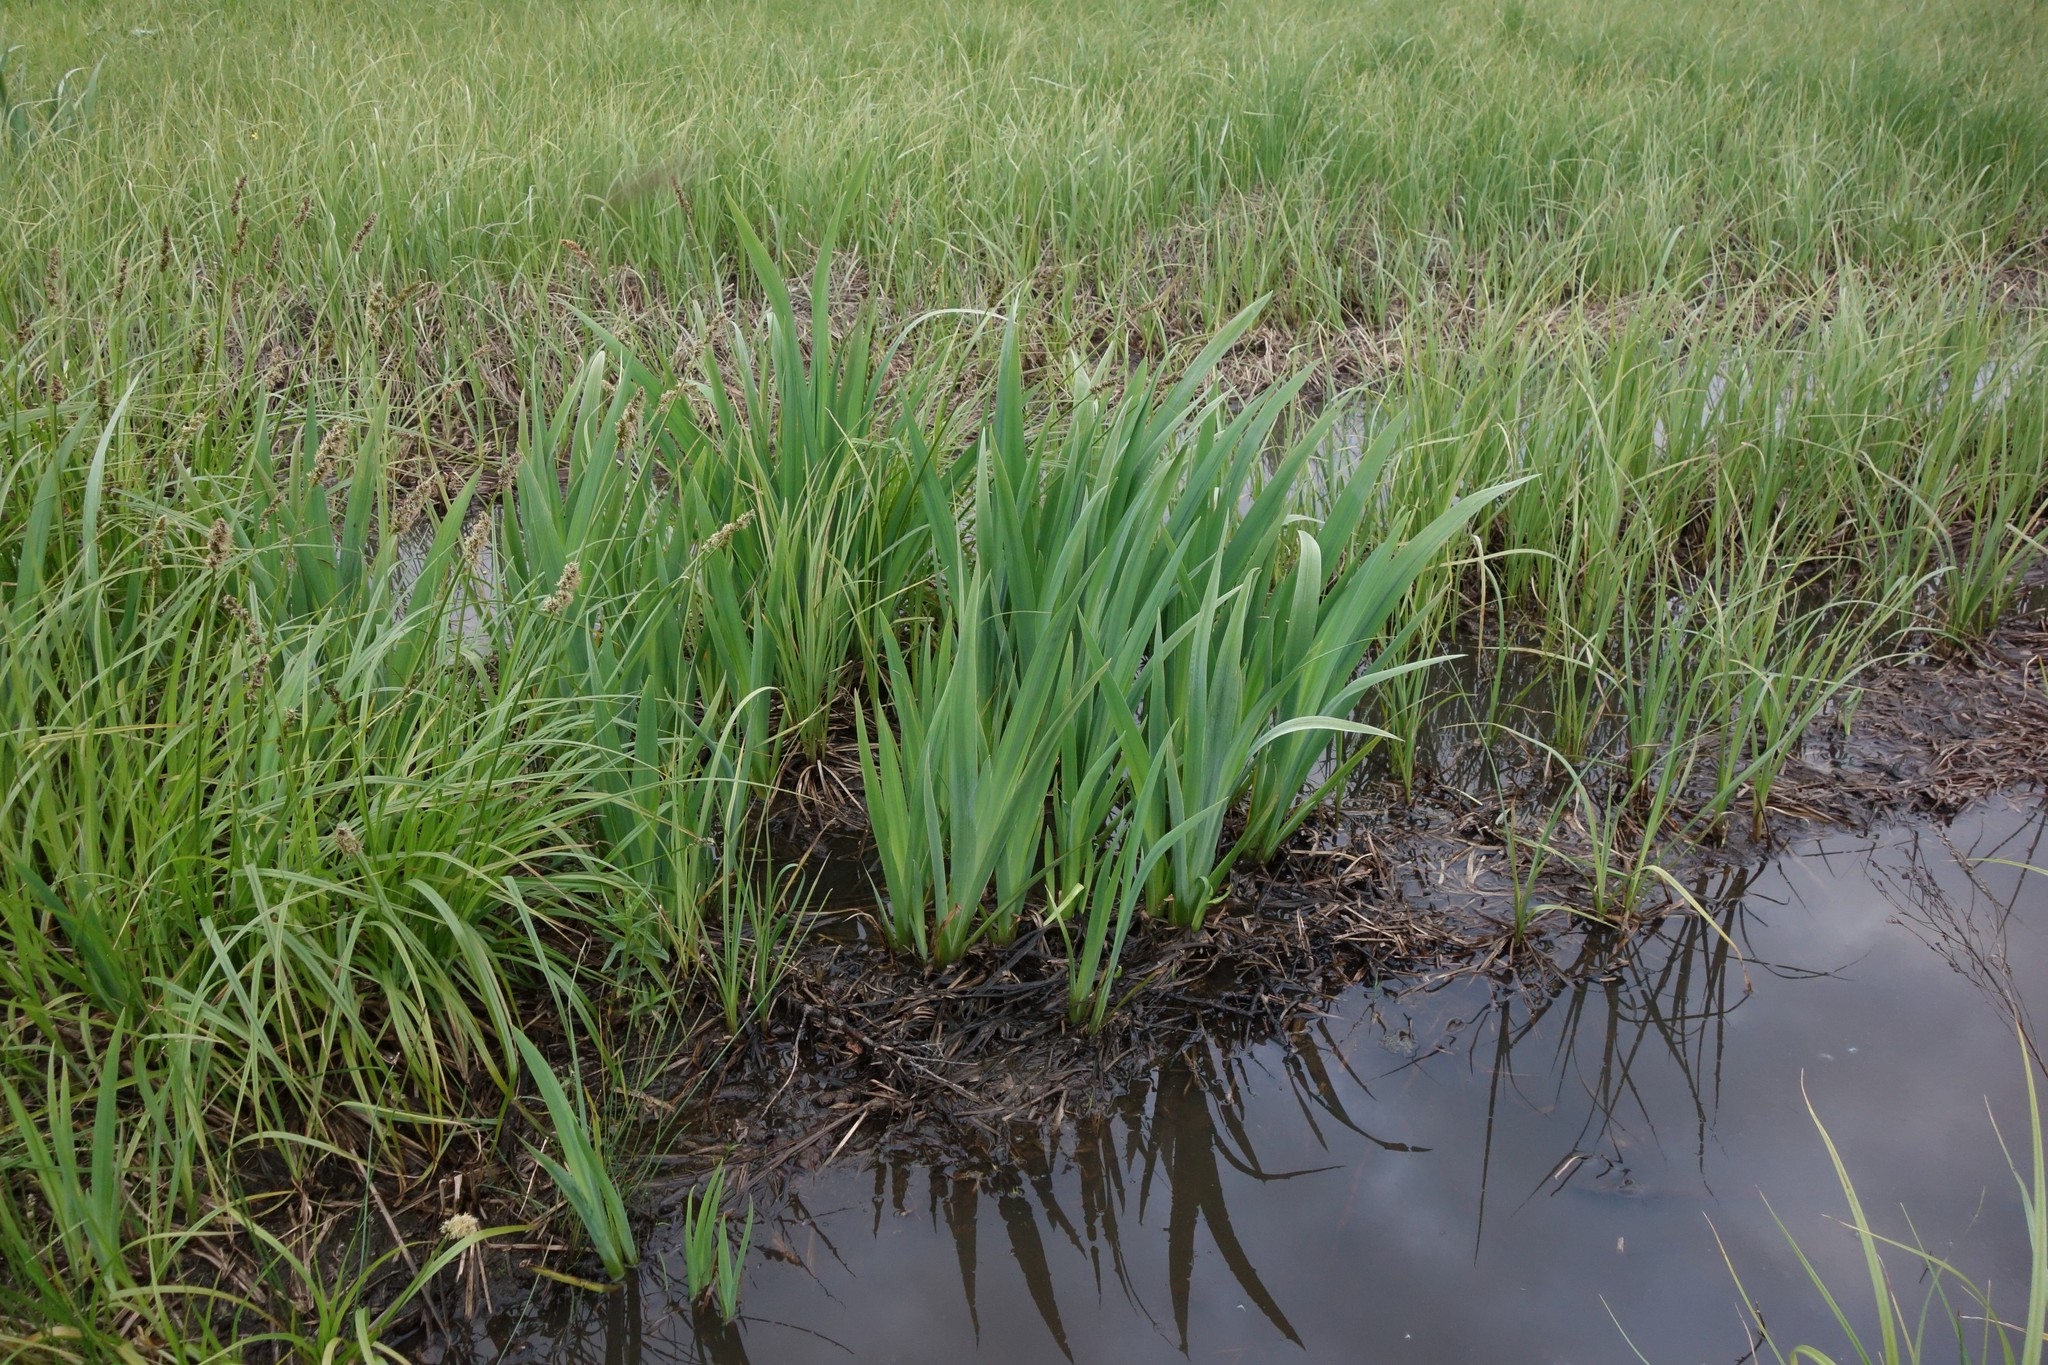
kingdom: Plantae
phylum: Tracheophyta
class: Liliopsida
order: Asparagales
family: Iridaceae
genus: Iris
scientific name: Iris pseudacorus
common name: Yellow flag
